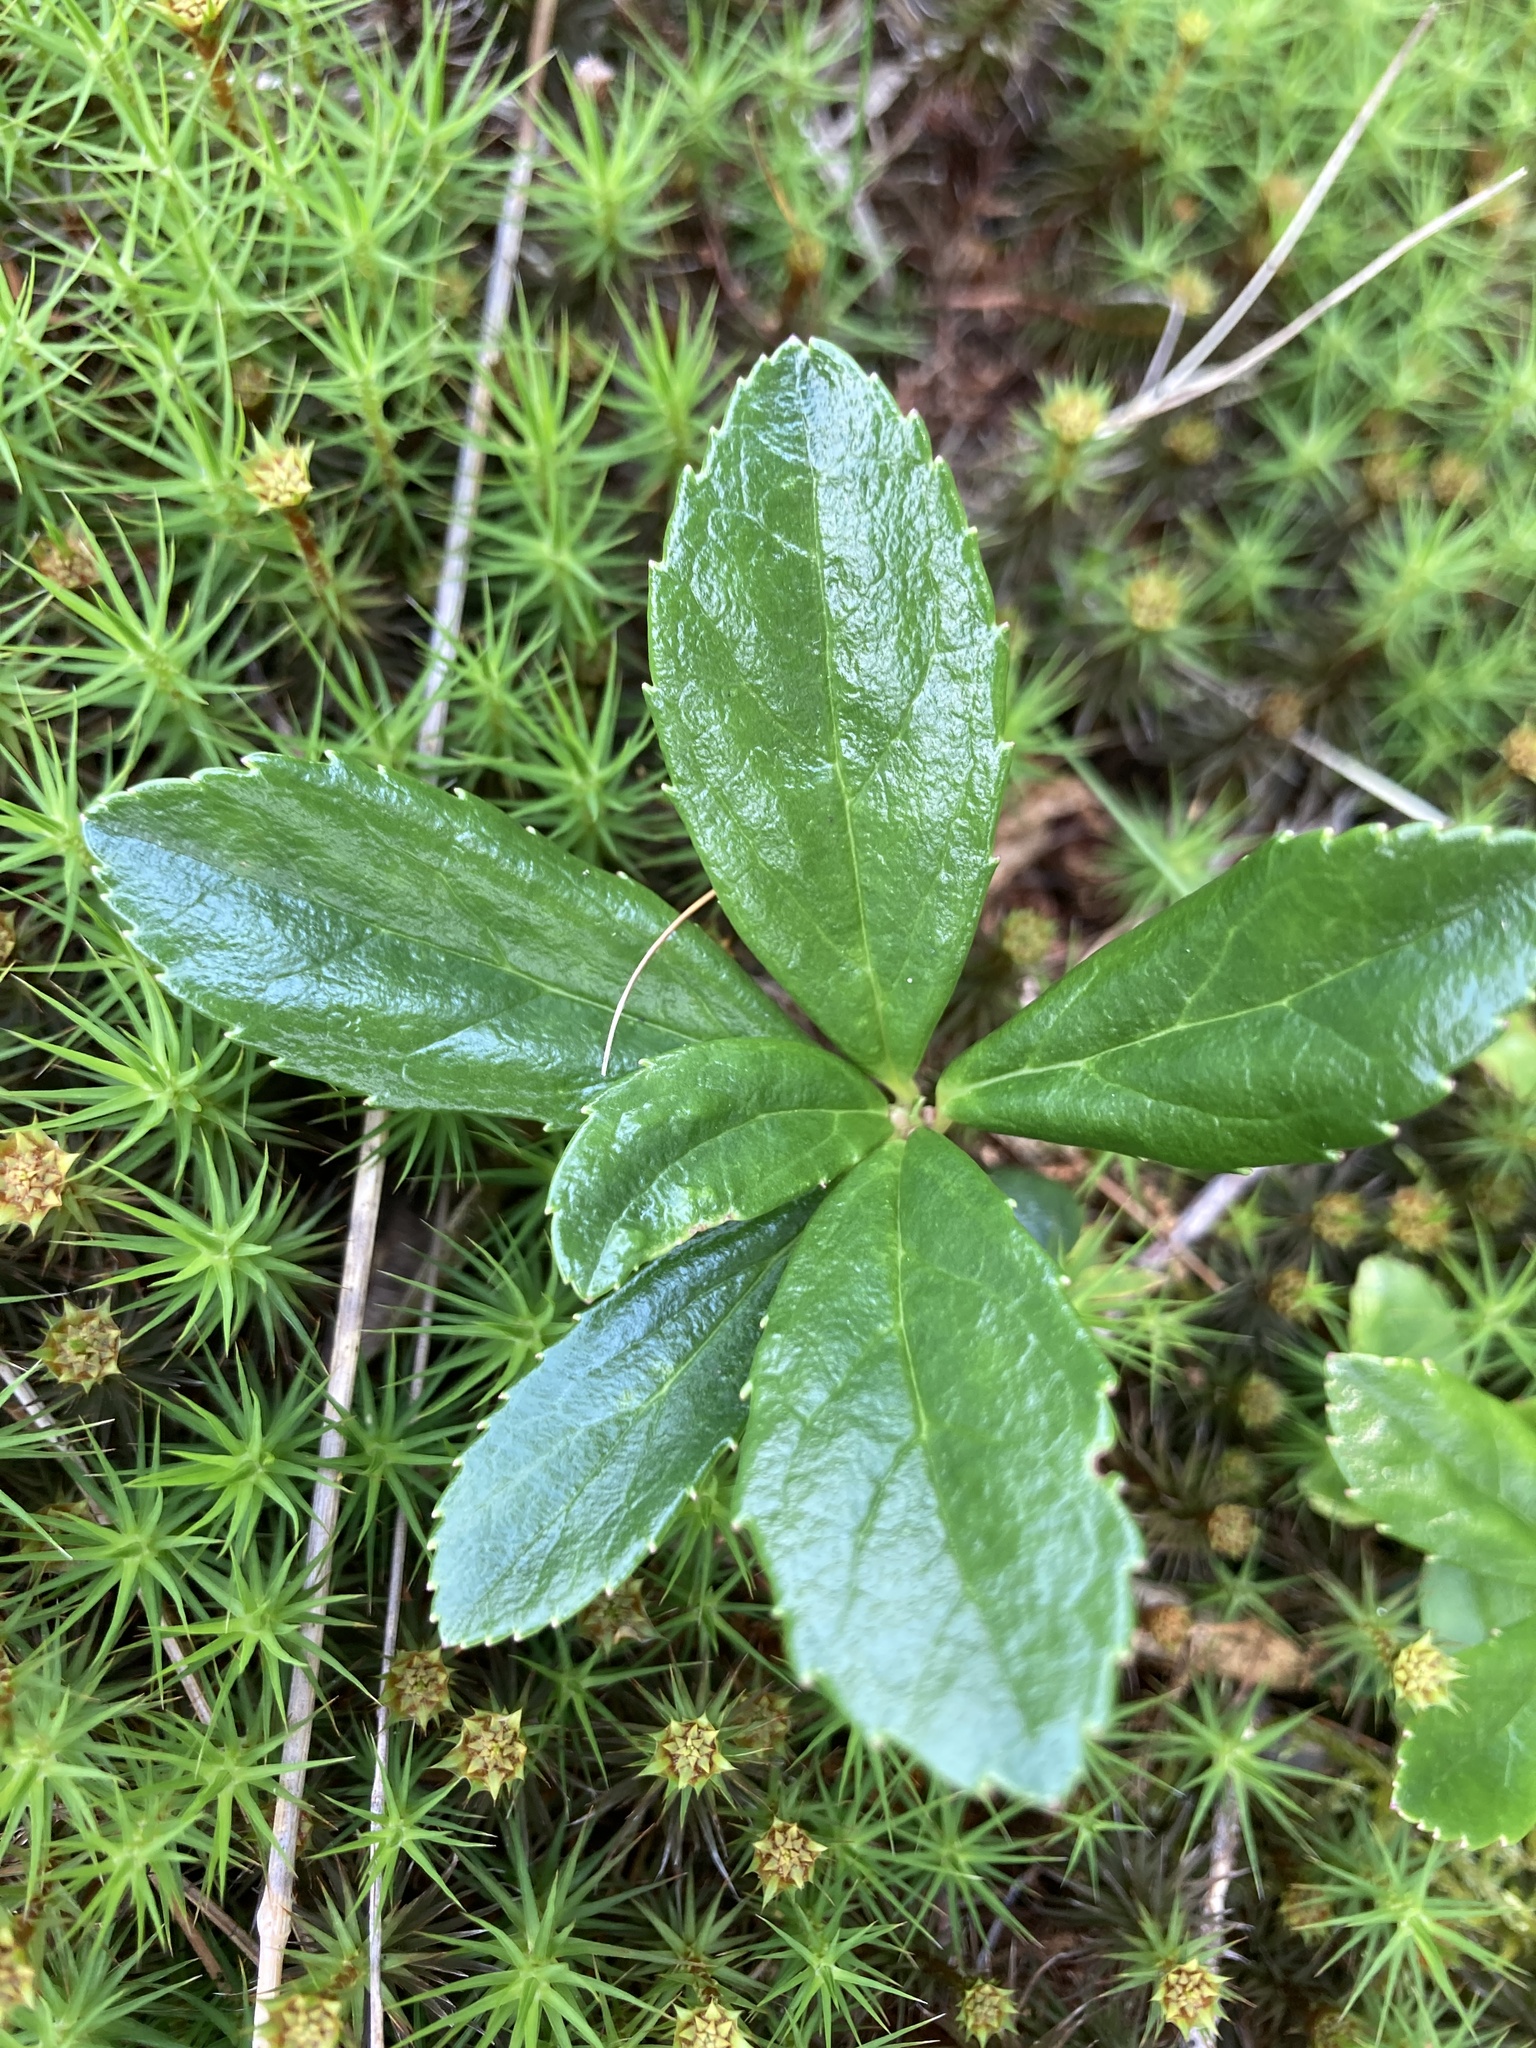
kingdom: Plantae
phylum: Tracheophyta
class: Magnoliopsida
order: Ericales
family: Ericaceae
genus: Chimaphila
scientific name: Chimaphila umbellata
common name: Pipsissewa
